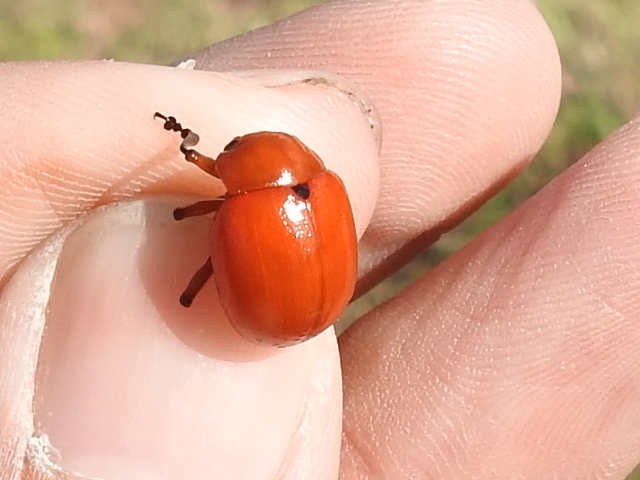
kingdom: Animalia
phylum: Arthropoda
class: Insecta
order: Coleoptera
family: Chrysomelidae
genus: Leptinotarsa
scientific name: Leptinotarsa rubiginosa
